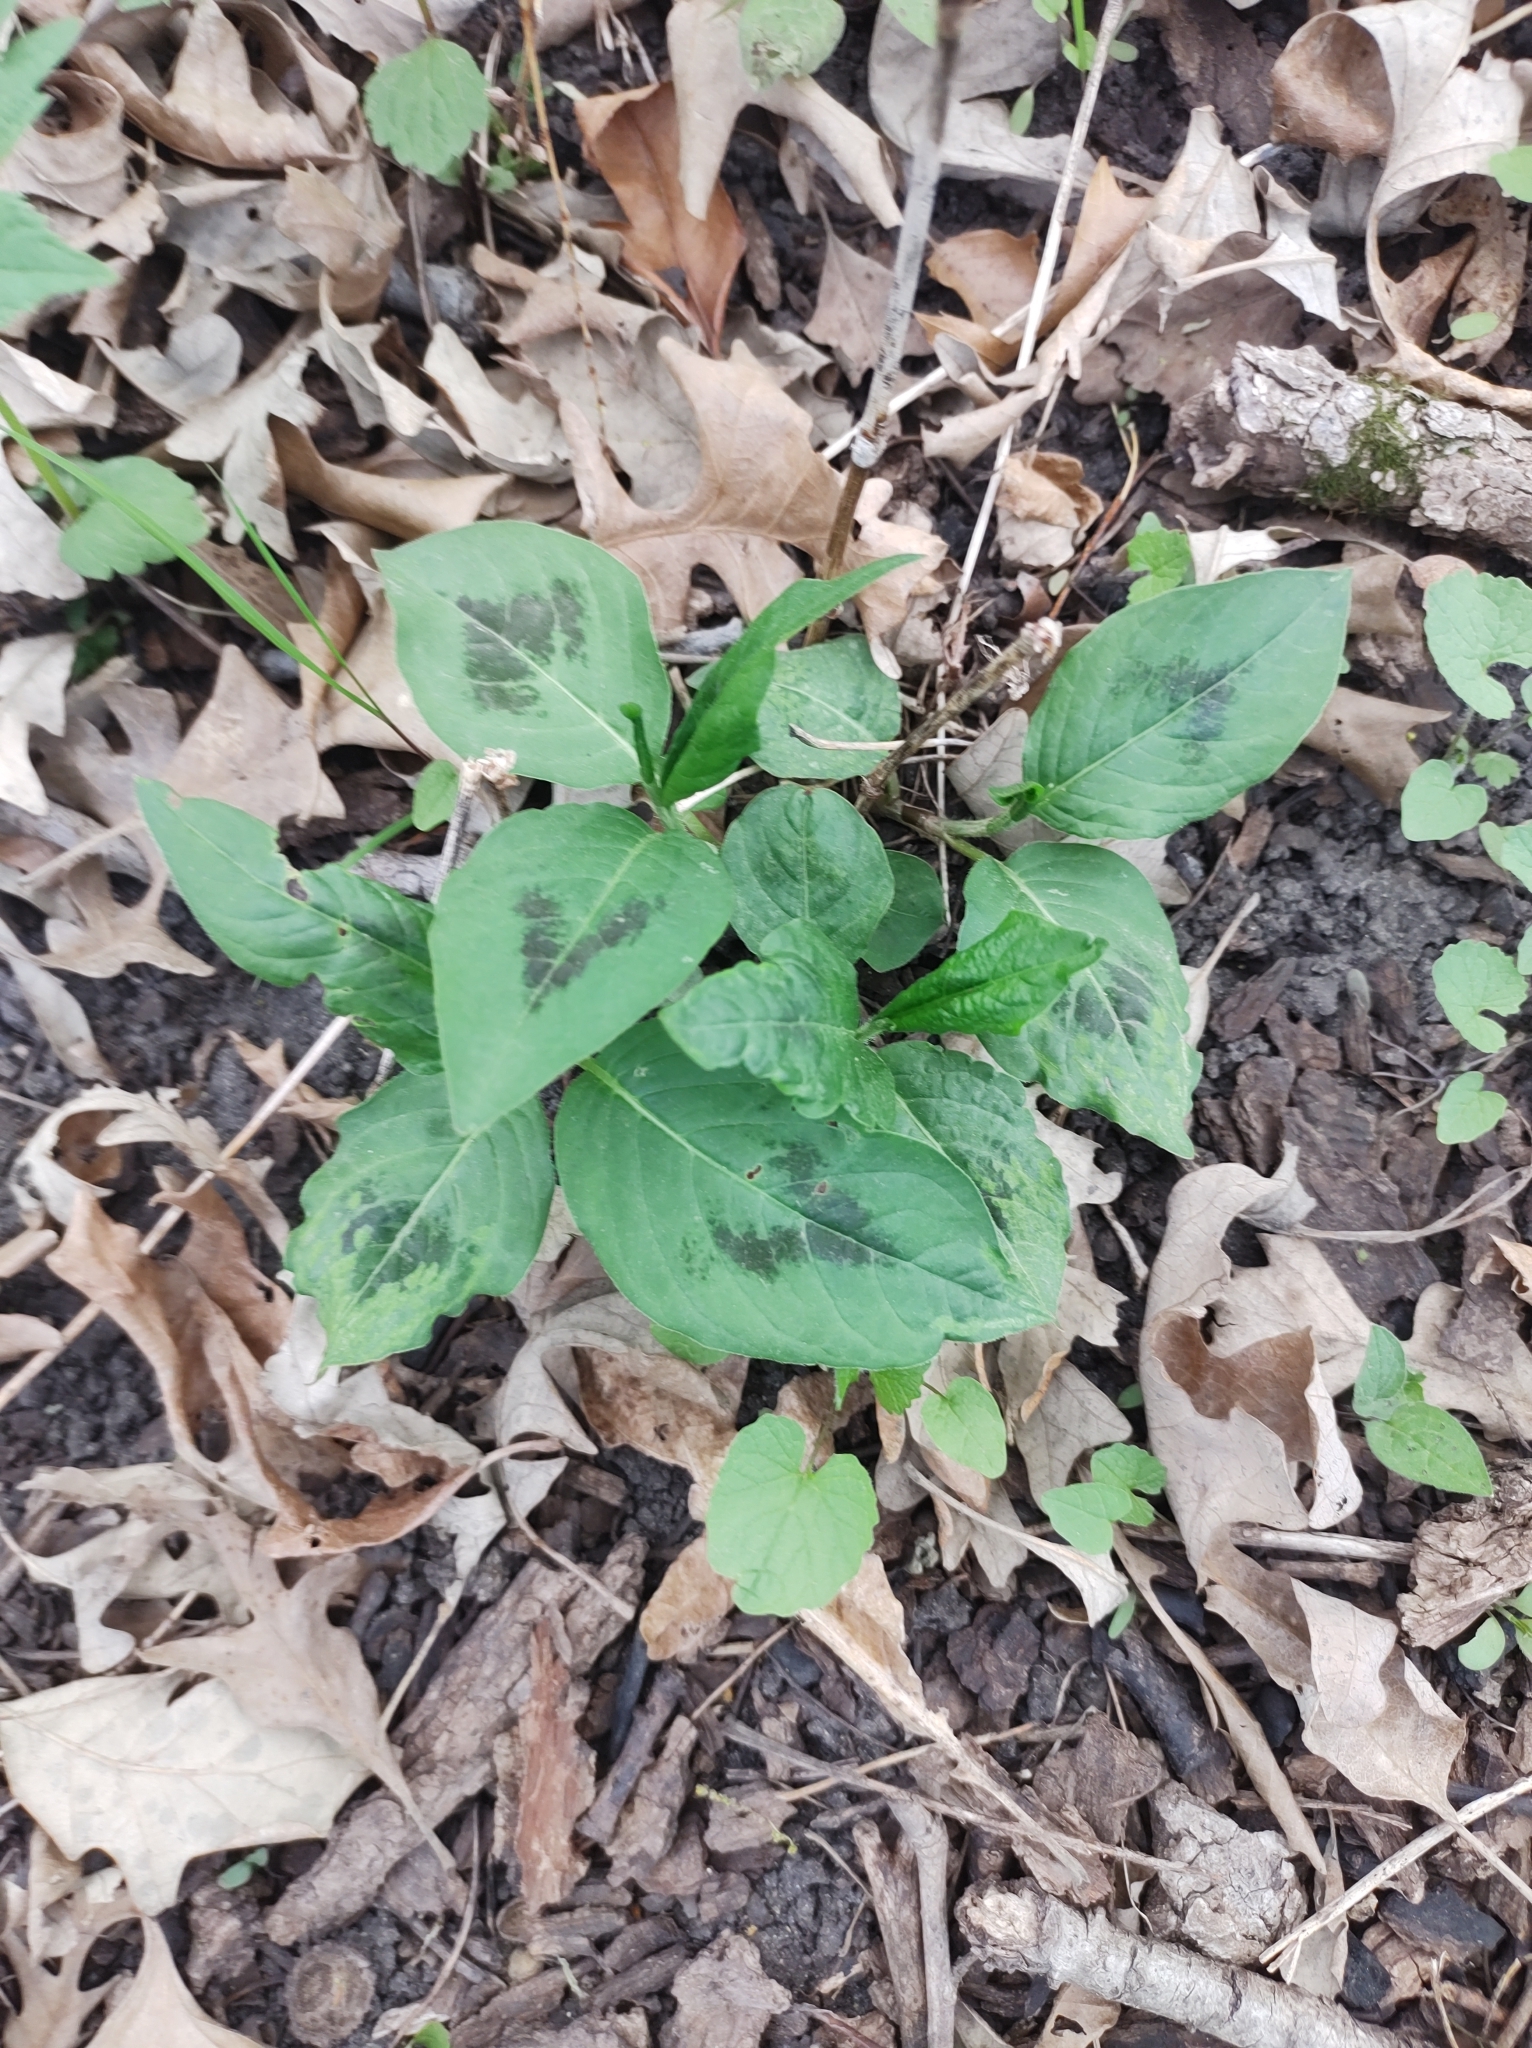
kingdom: Plantae
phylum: Tracheophyta
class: Magnoliopsida
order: Caryophyllales
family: Polygonaceae
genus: Persicaria
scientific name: Persicaria virginiana
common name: Jumpseed
